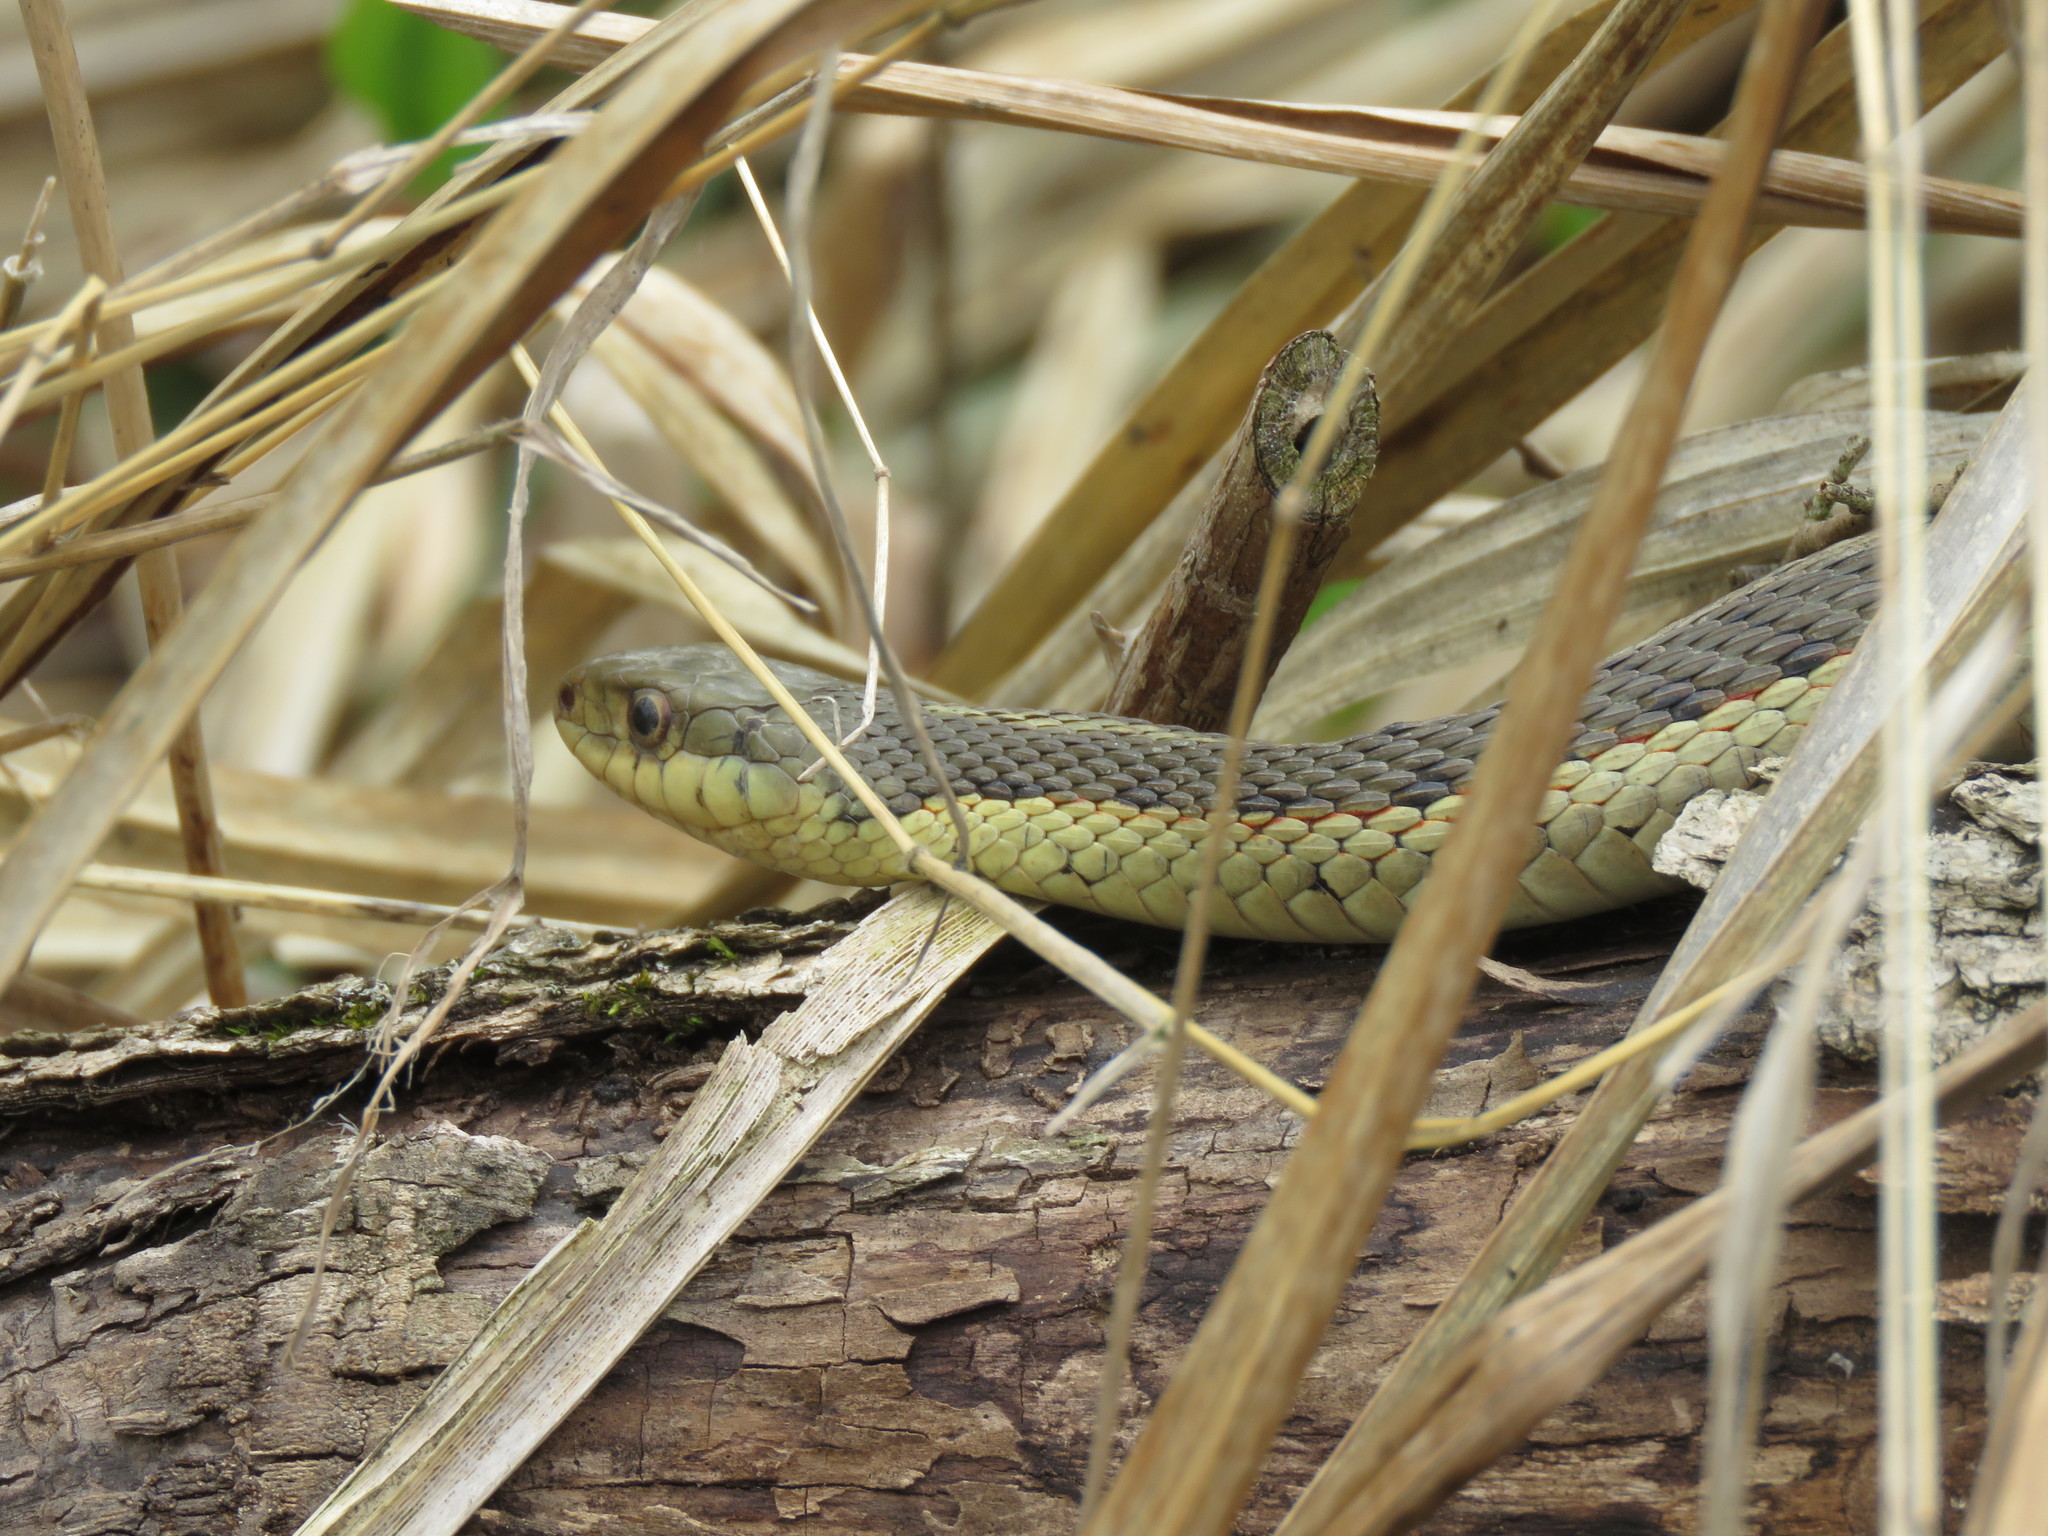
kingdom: Animalia
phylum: Chordata
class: Squamata
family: Colubridae
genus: Thamnophis
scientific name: Thamnophis sirtalis
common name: Common garter snake
